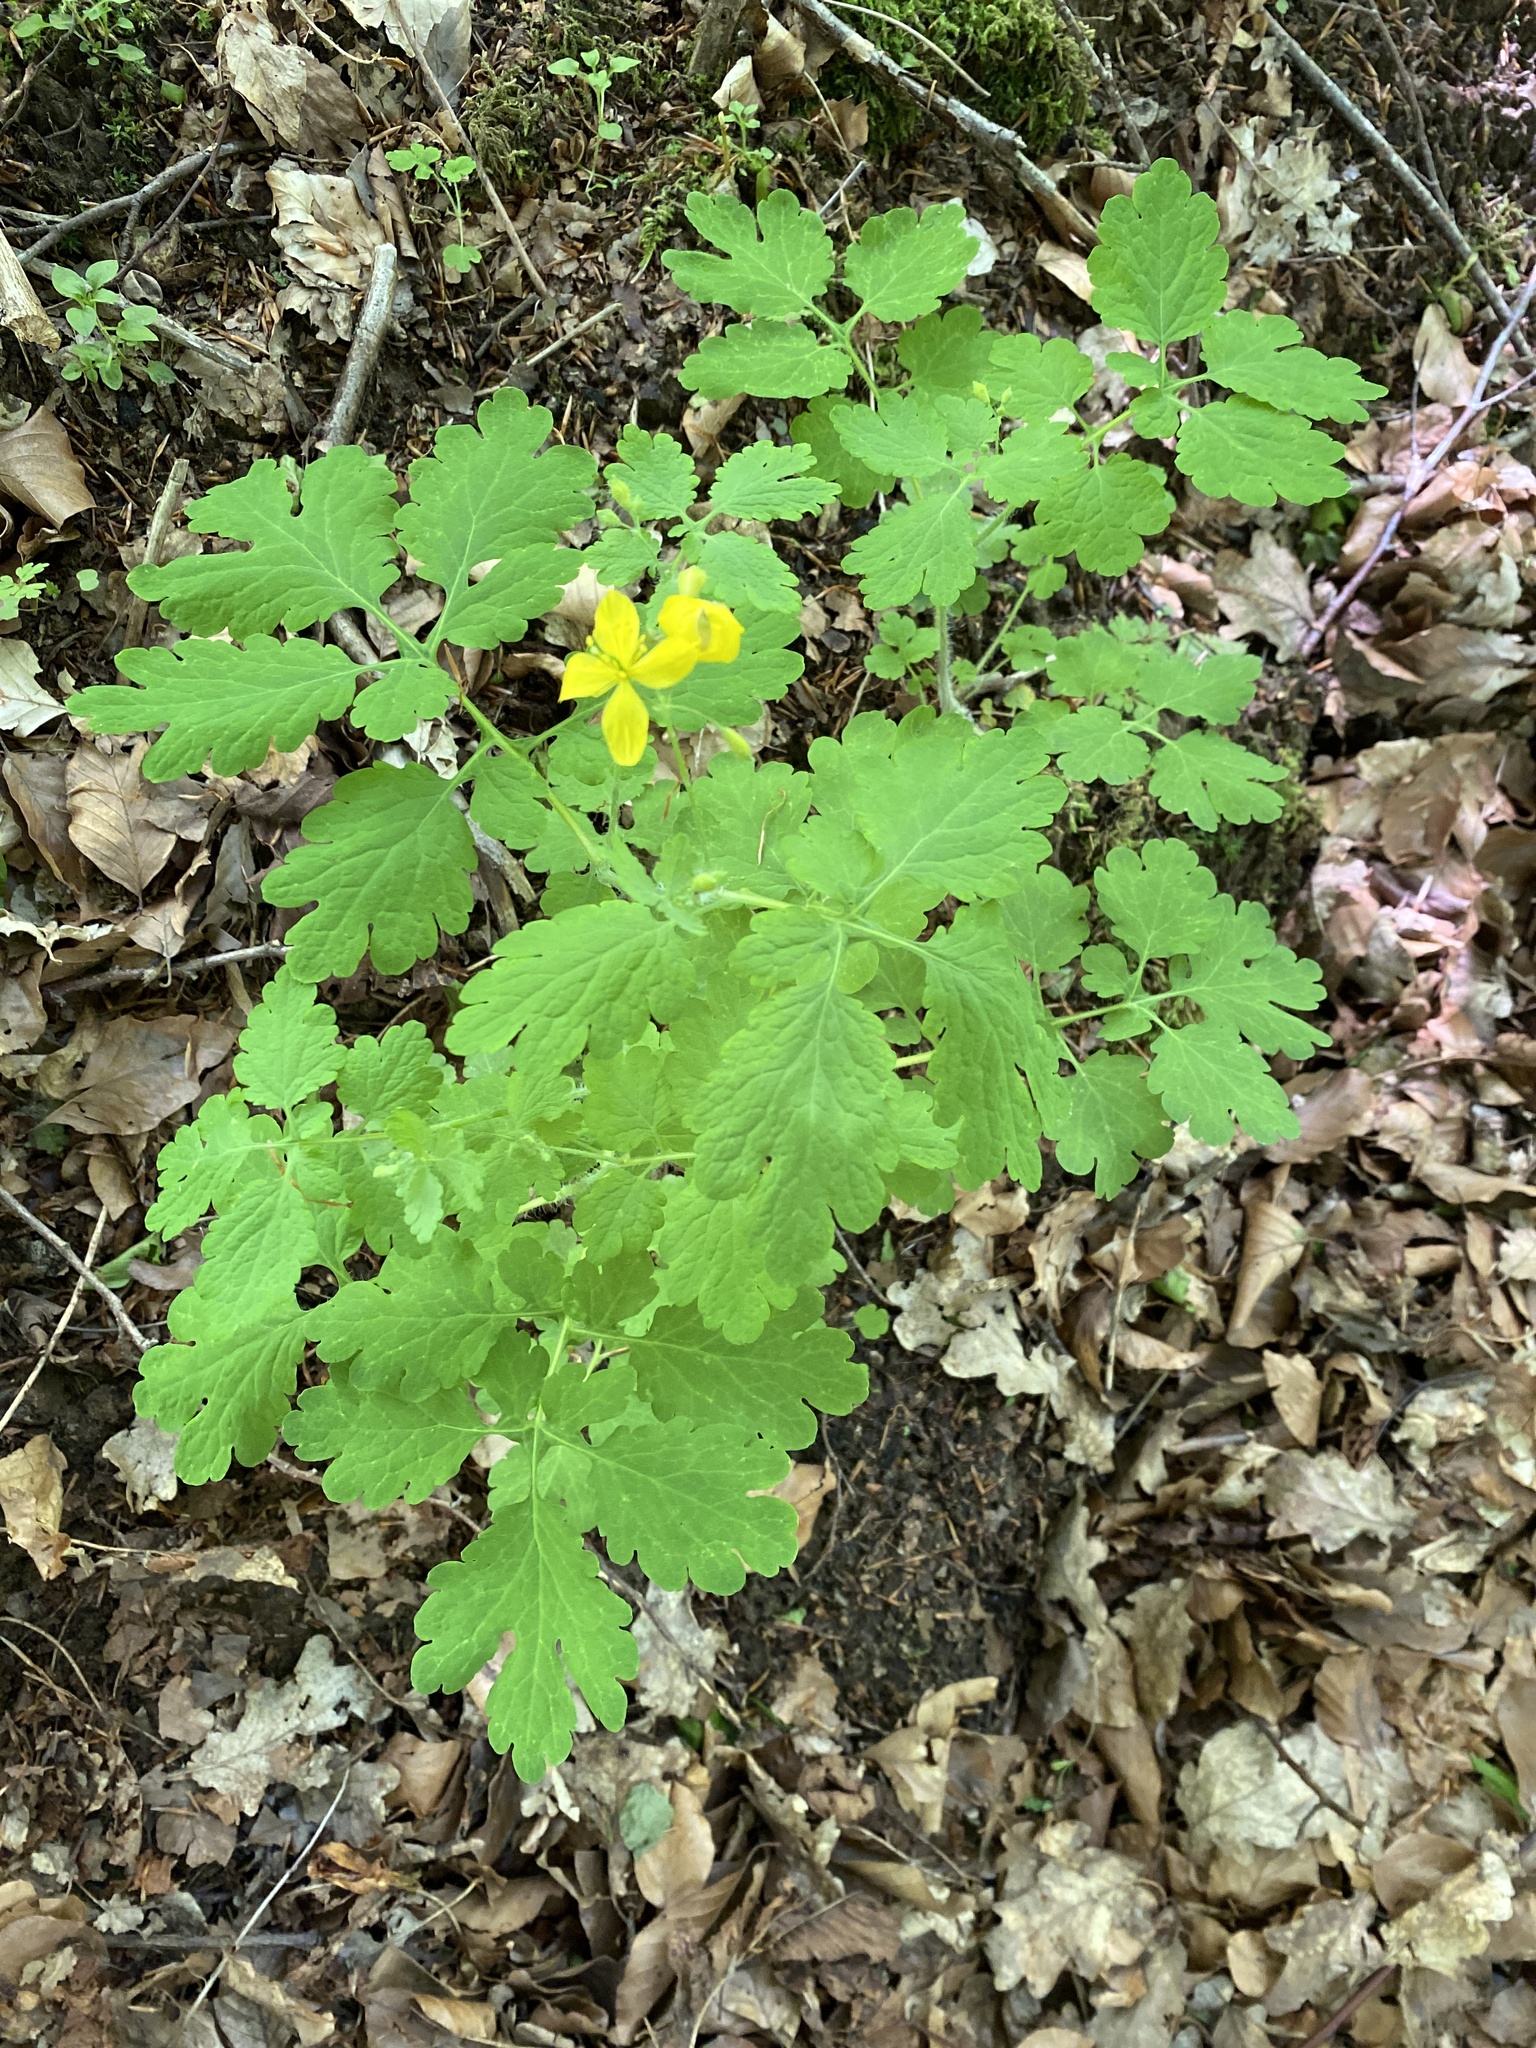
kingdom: Plantae
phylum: Tracheophyta
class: Magnoliopsida
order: Ranunculales
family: Papaveraceae
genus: Chelidonium
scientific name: Chelidonium majus
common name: Greater celandine
